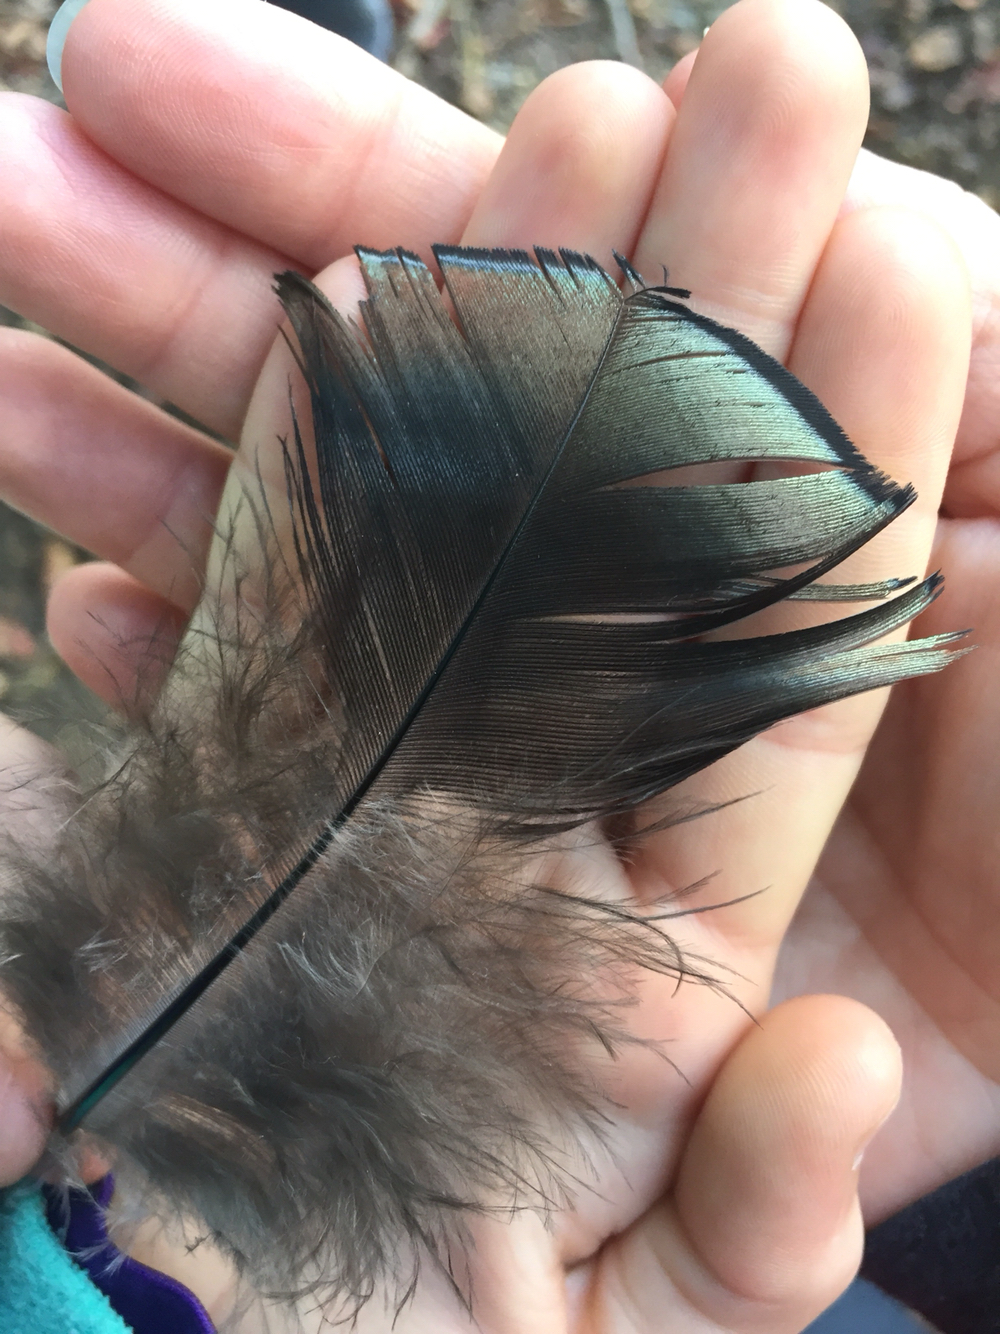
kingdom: Animalia
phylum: Chordata
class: Aves
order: Galliformes
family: Phasianidae
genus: Meleagris
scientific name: Meleagris gallopavo
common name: Wild turkey
